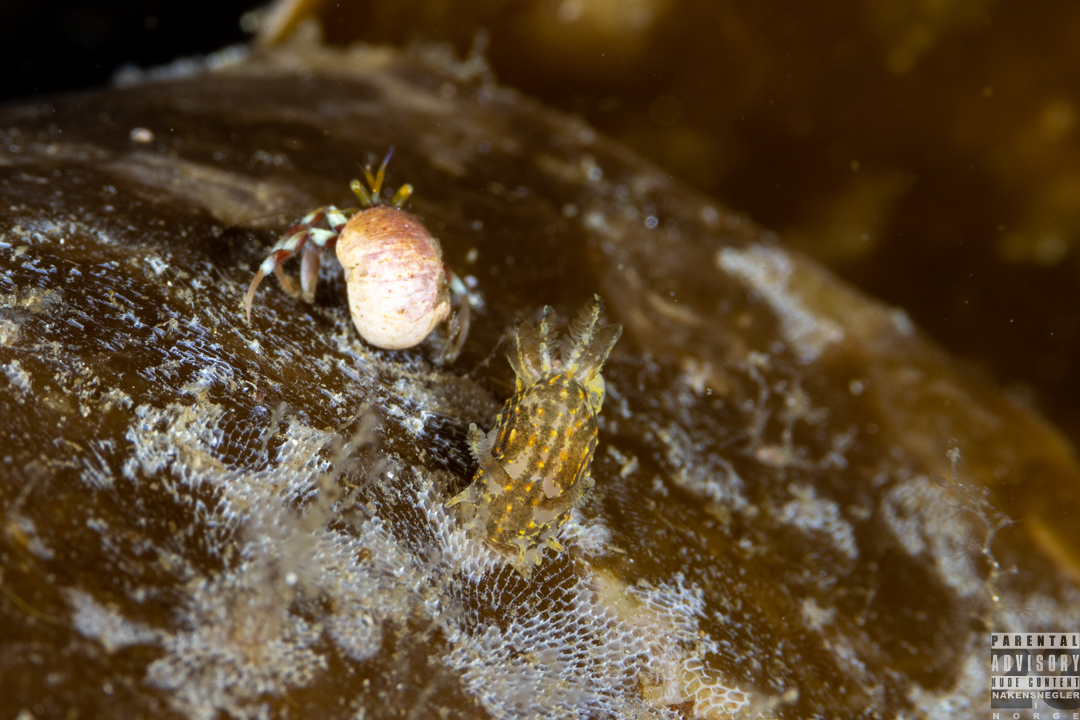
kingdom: Animalia
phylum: Mollusca
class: Gastropoda
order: Nudibranchia
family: Polyceridae
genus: Polycera
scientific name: Polycera quadrilineata
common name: Four-striped polycera
